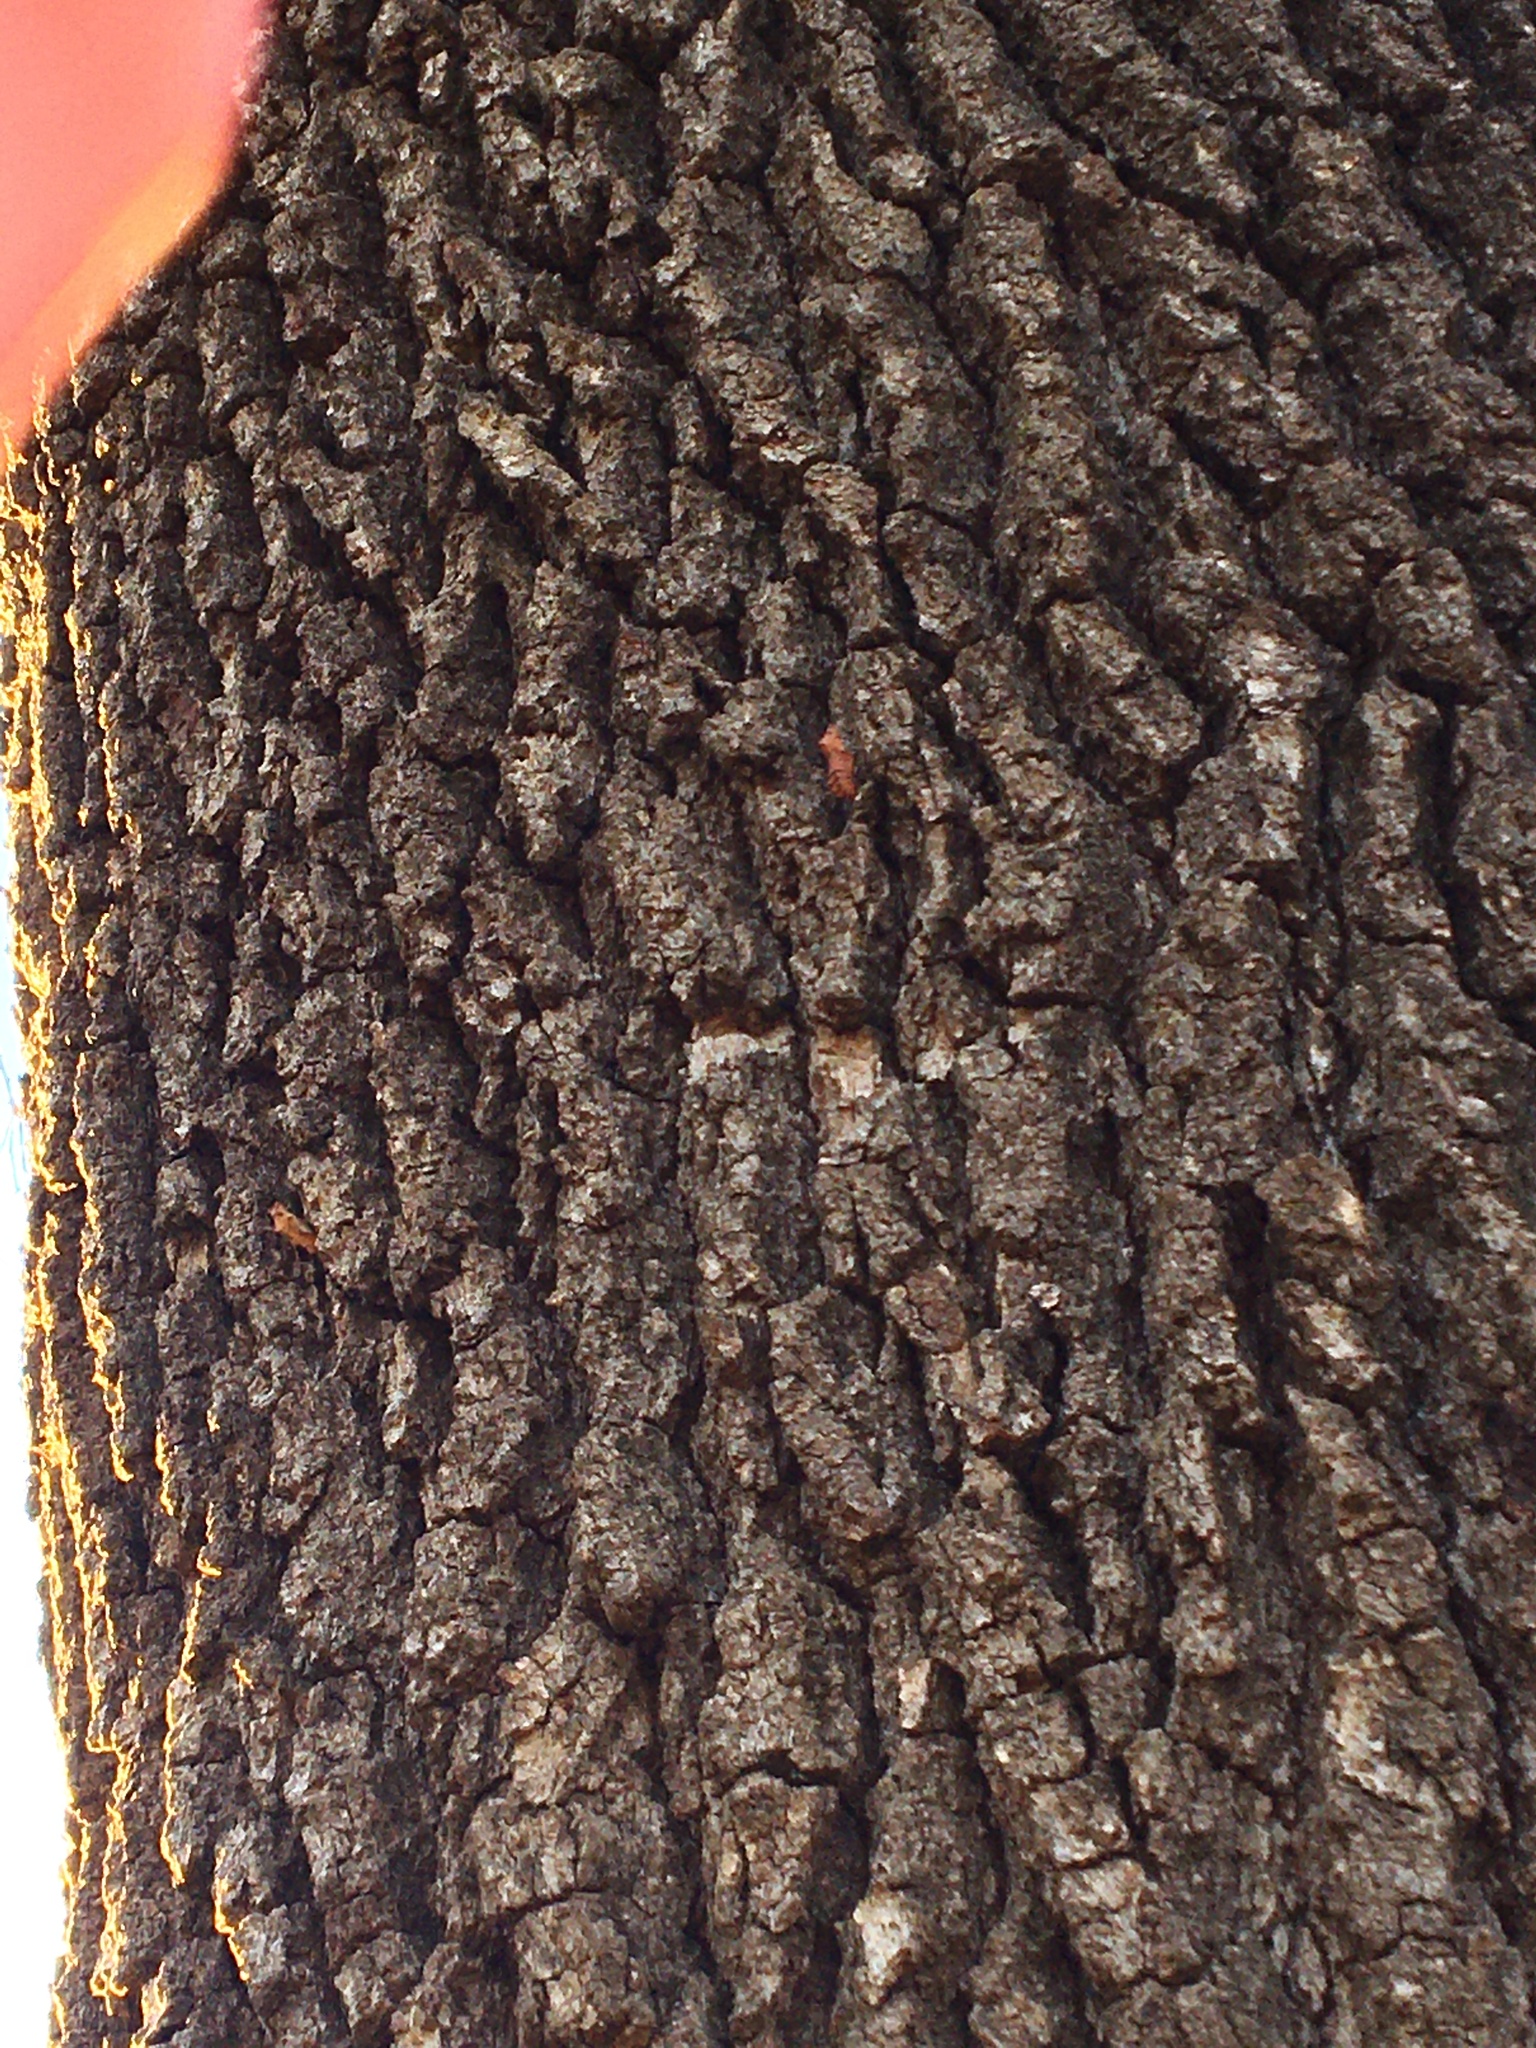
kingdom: Animalia
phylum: Arthropoda
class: Insecta
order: Lepidoptera
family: Papilionidae
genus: Battus
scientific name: Battus philenor
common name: Pipevine swallowtail
